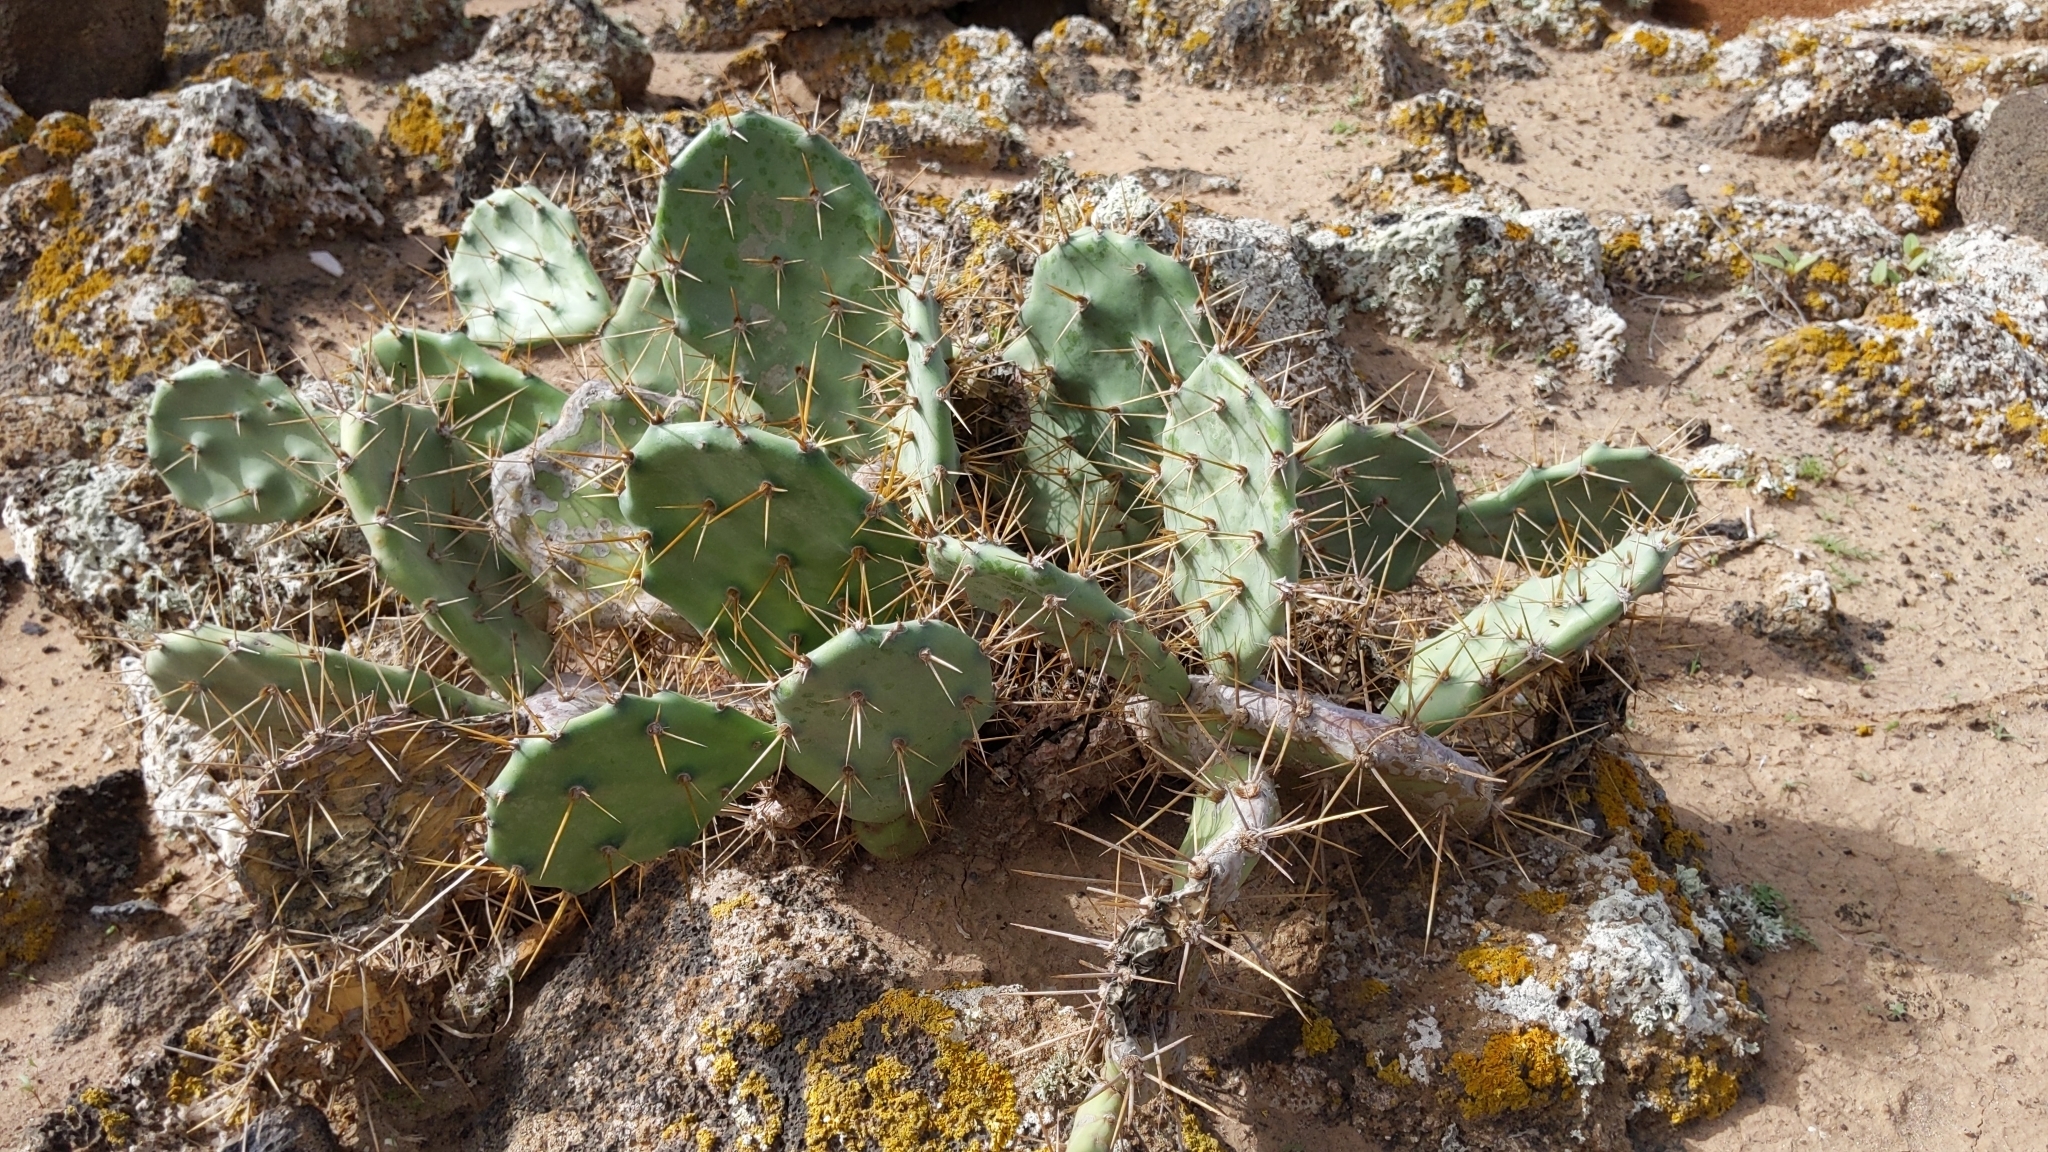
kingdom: Plantae
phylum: Tracheophyta
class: Magnoliopsida
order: Caryophyllales
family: Cactaceae
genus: Opuntia
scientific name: Opuntia stricta
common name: Erect pricklypear
